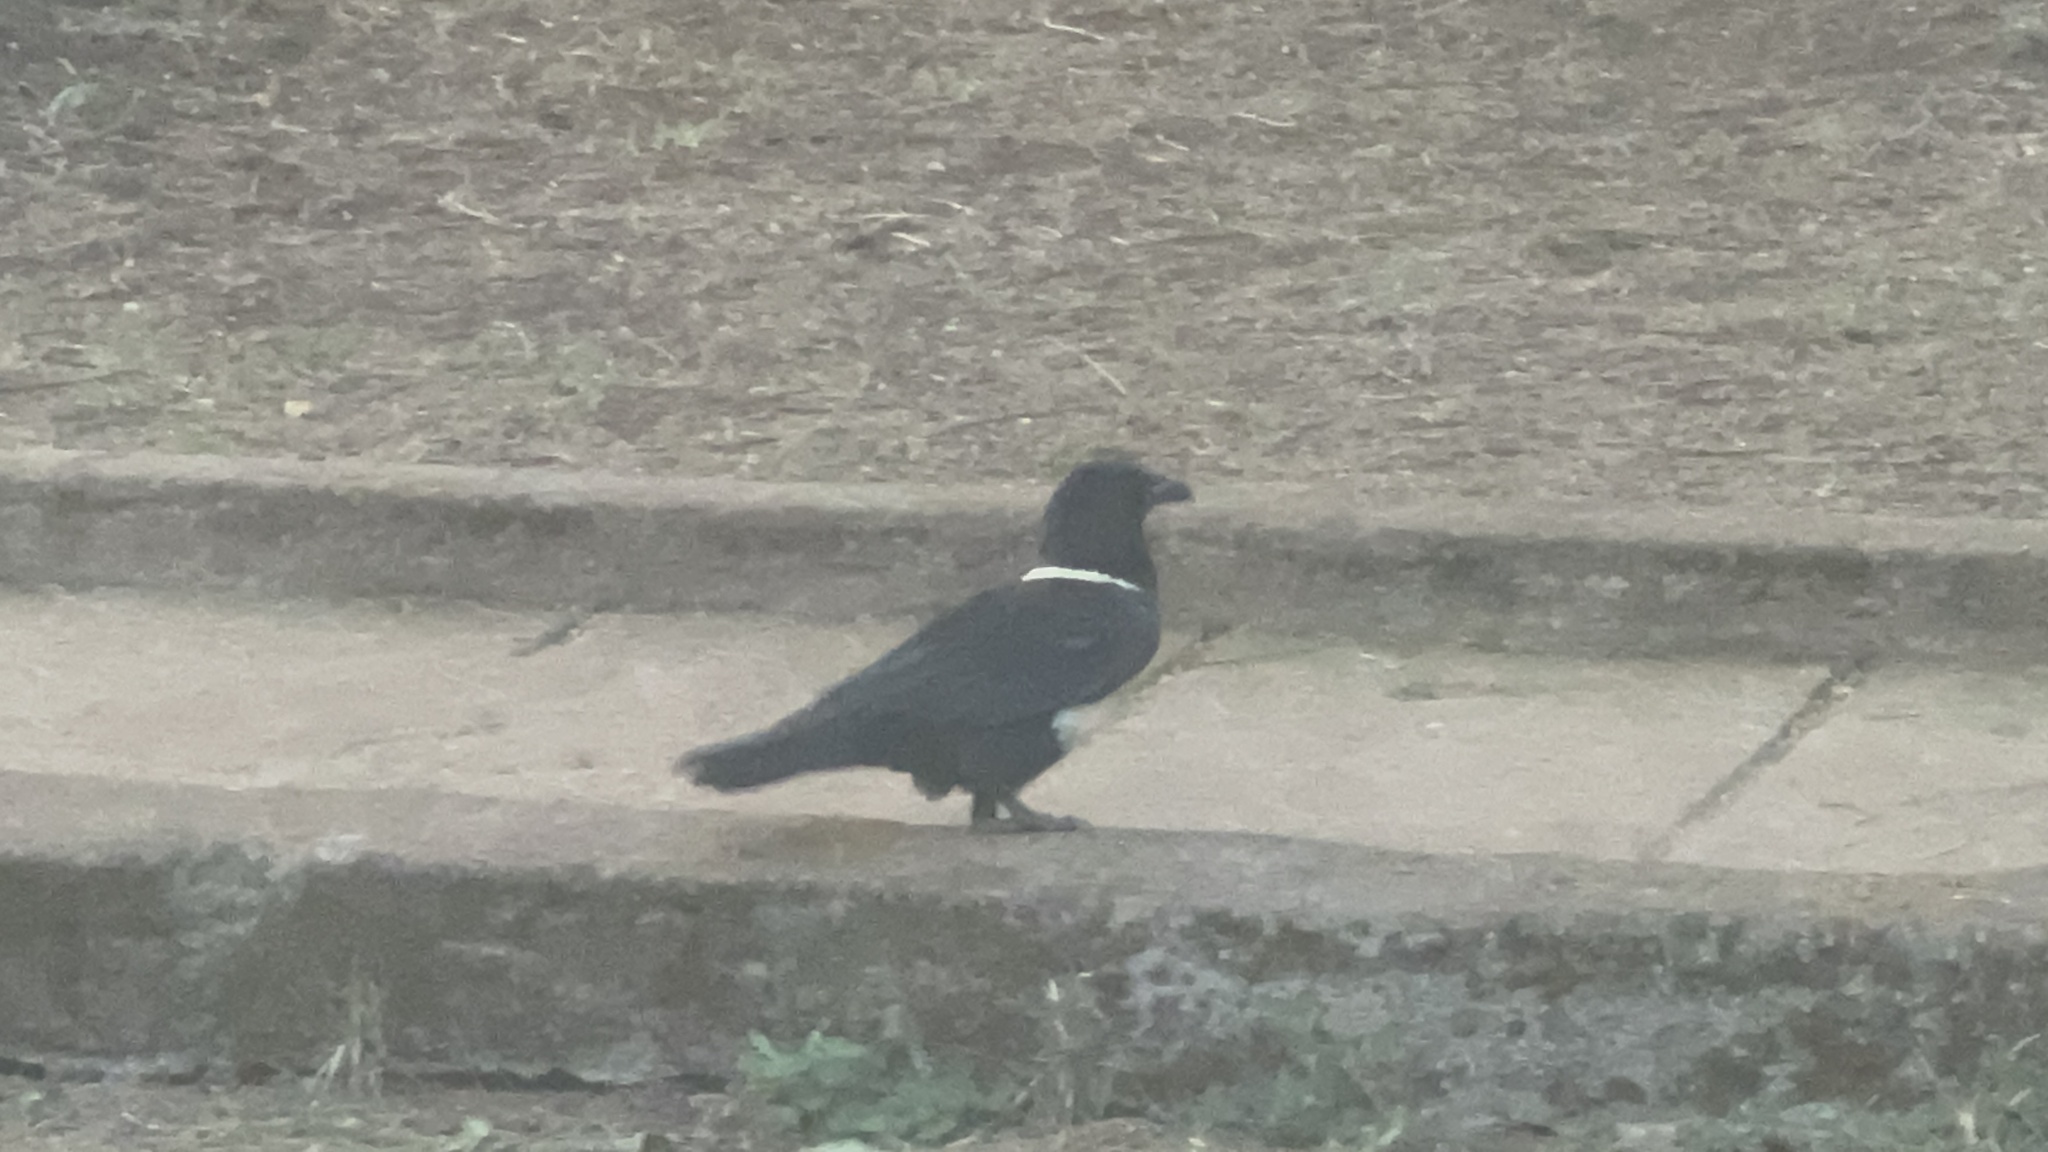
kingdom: Animalia
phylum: Chordata
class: Aves
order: Passeriformes
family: Corvidae
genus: Corvus
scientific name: Corvus albus
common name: Pied crow
